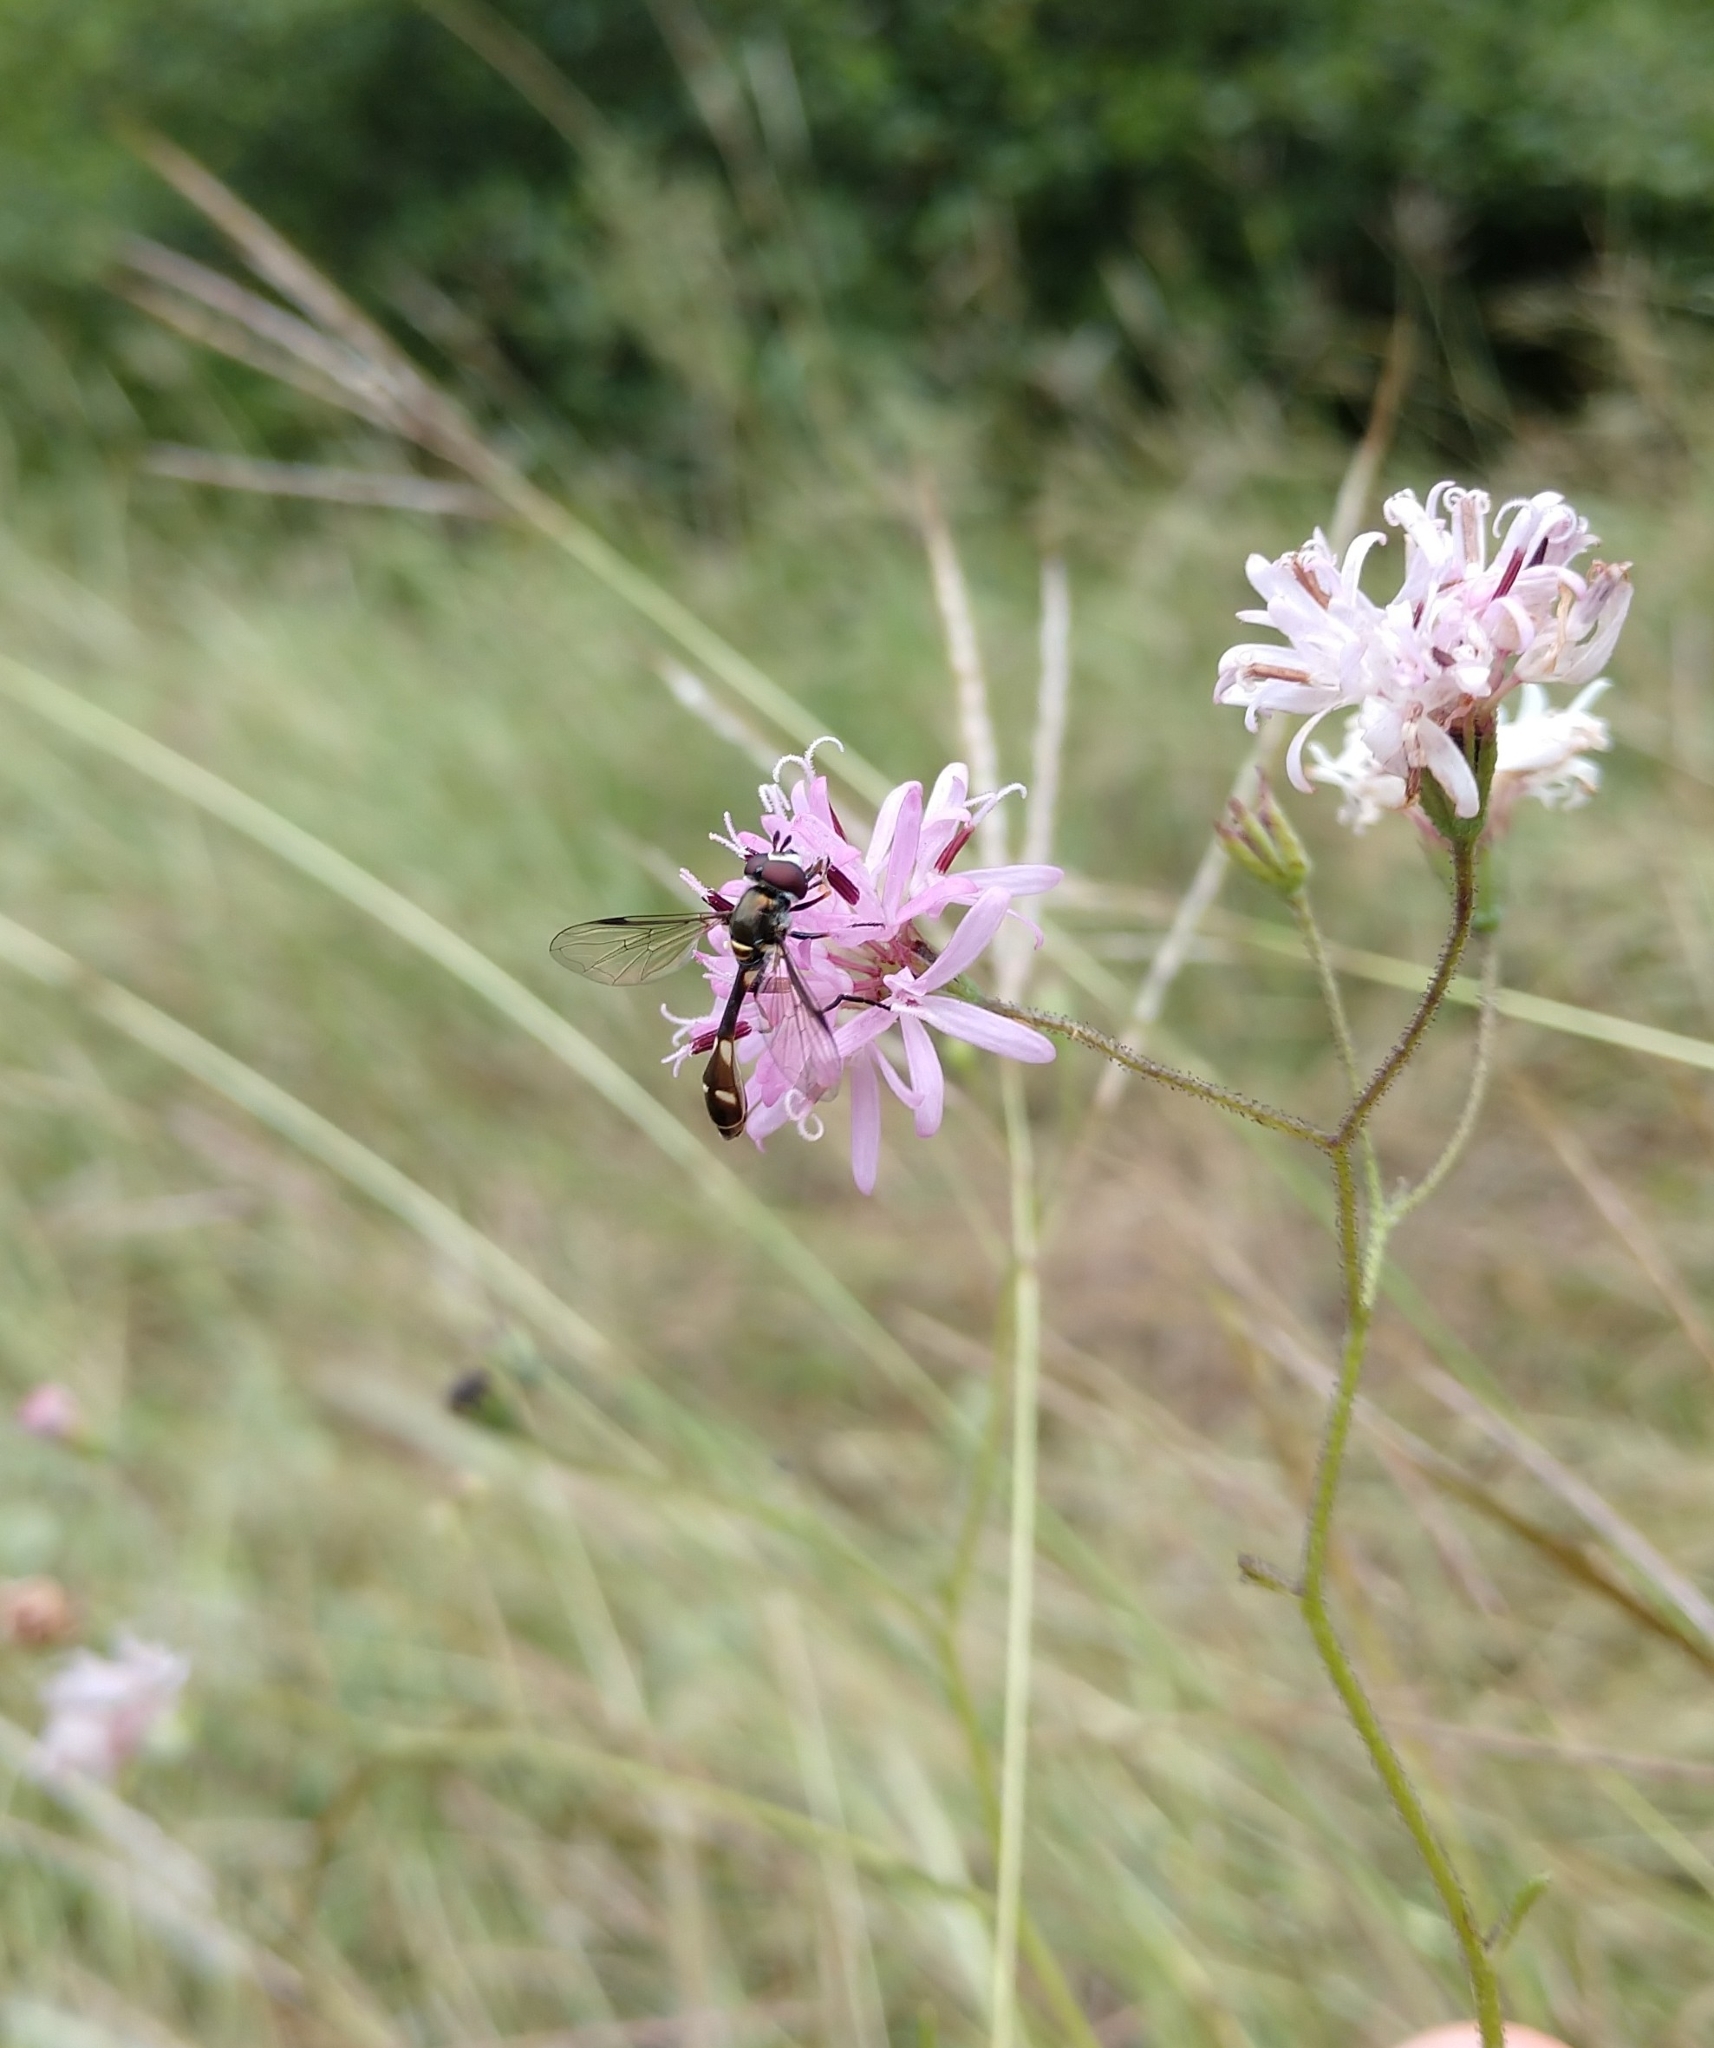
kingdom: Animalia
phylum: Arthropoda
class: Insecta
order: Diptera
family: Syrphidae
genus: Dioprosopa
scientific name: Dioprosopa clavatus
